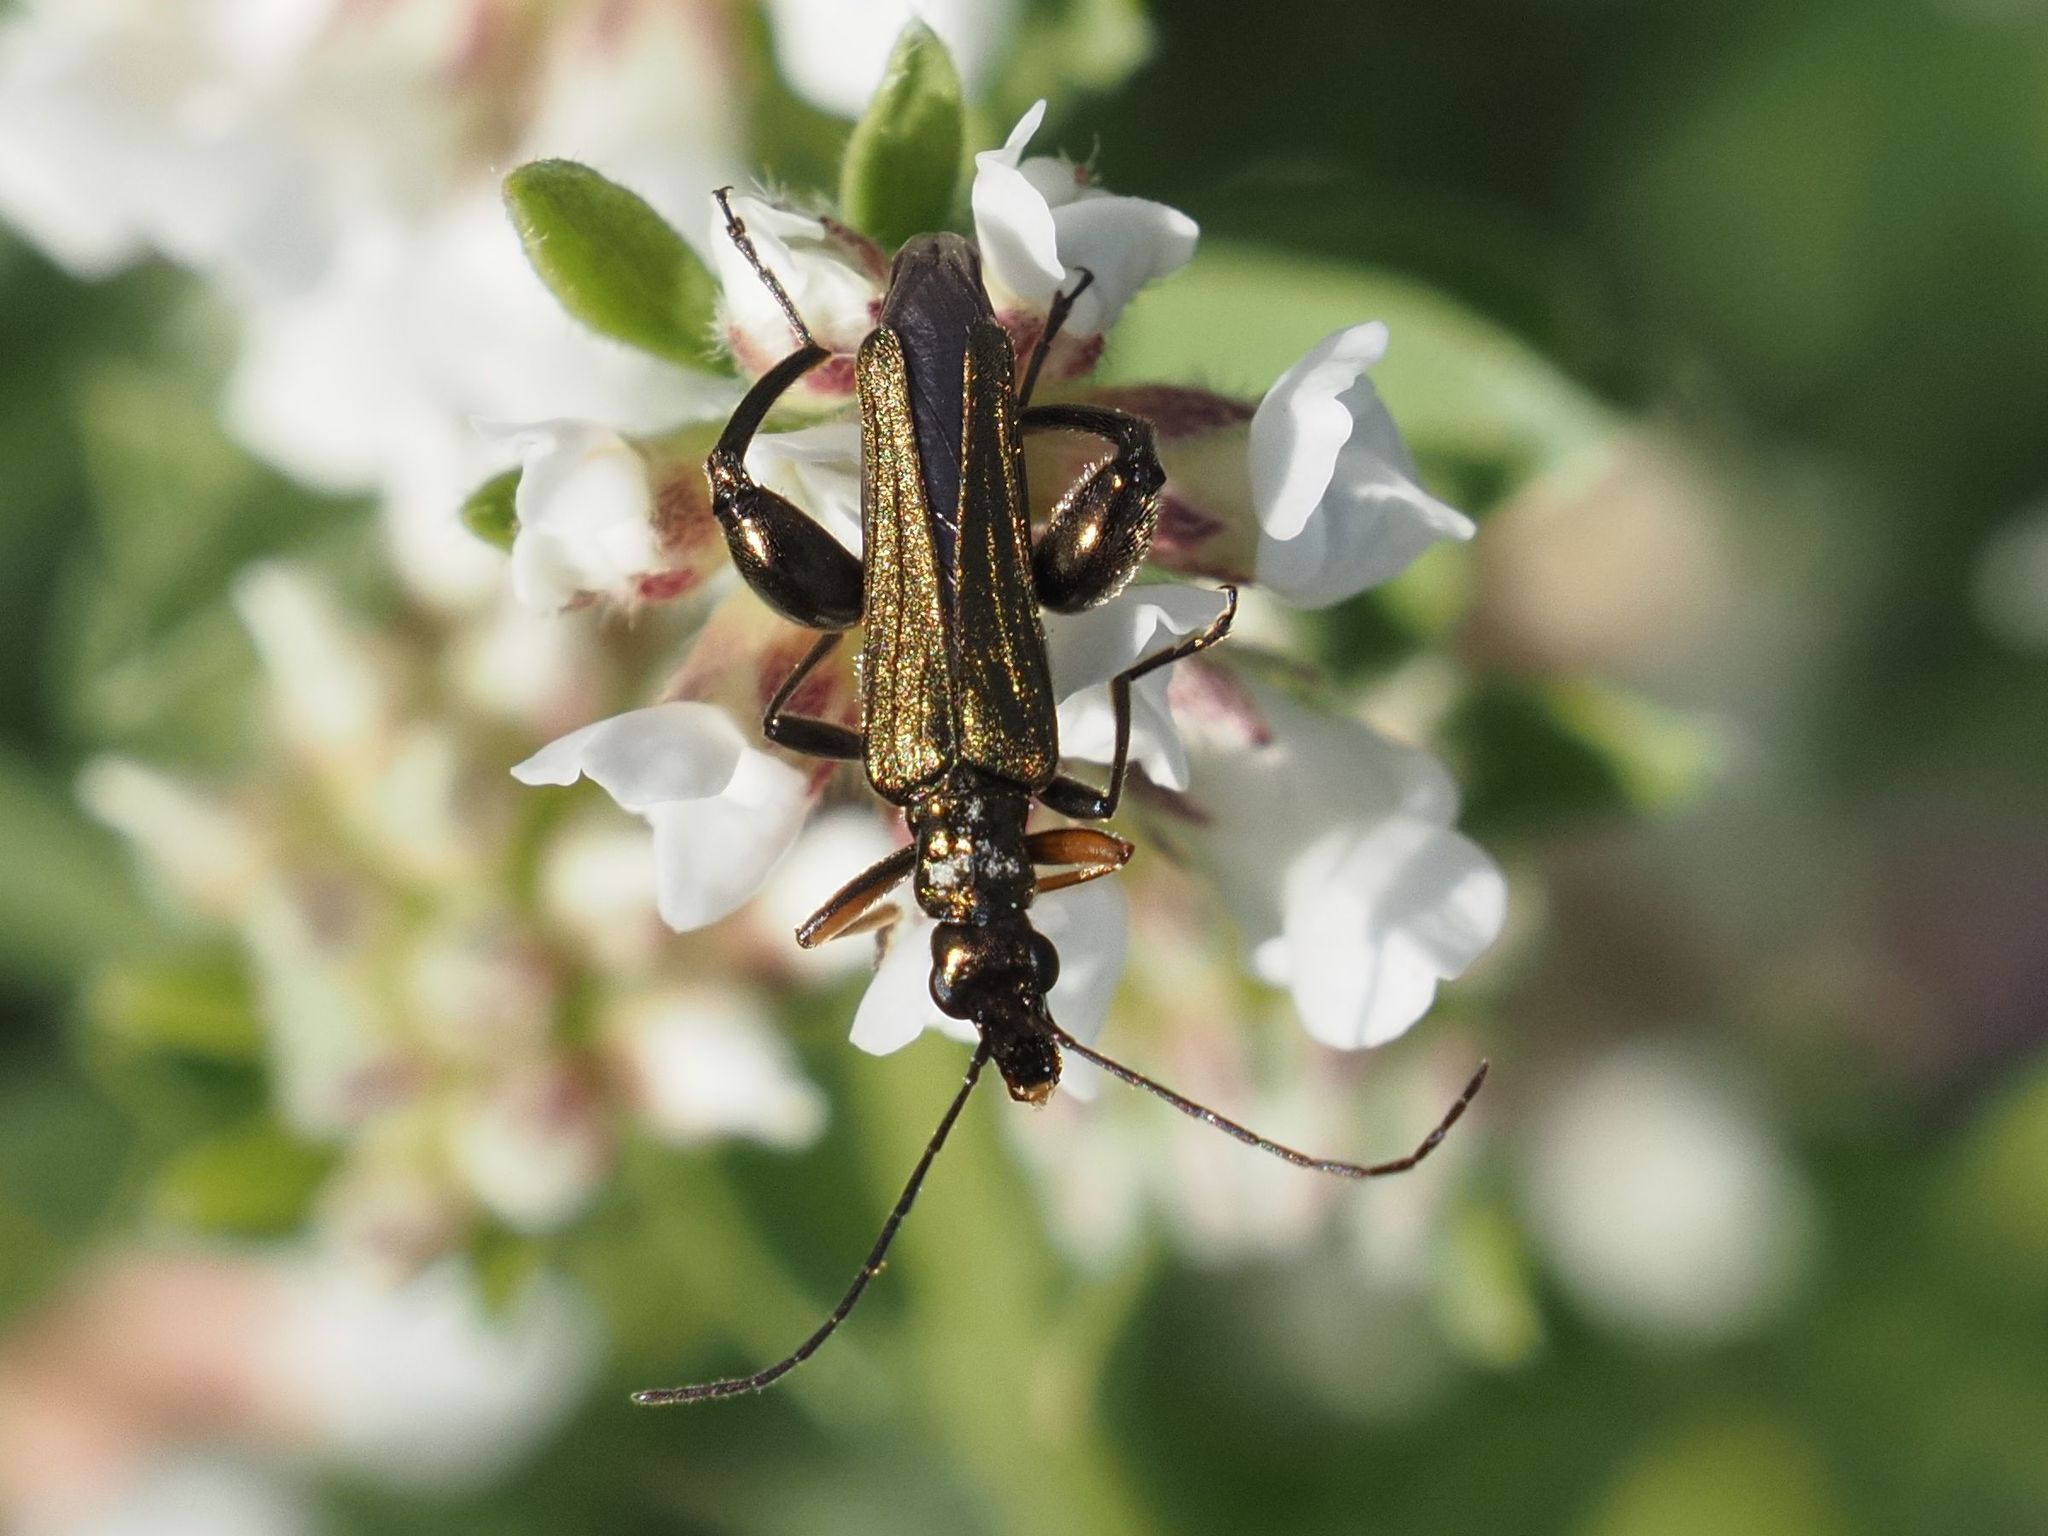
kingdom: Animalia
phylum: Arthropoda
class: Insecta
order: Coleoptera
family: Oedemeridae
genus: Oedemera
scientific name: Oedemera flavipes
